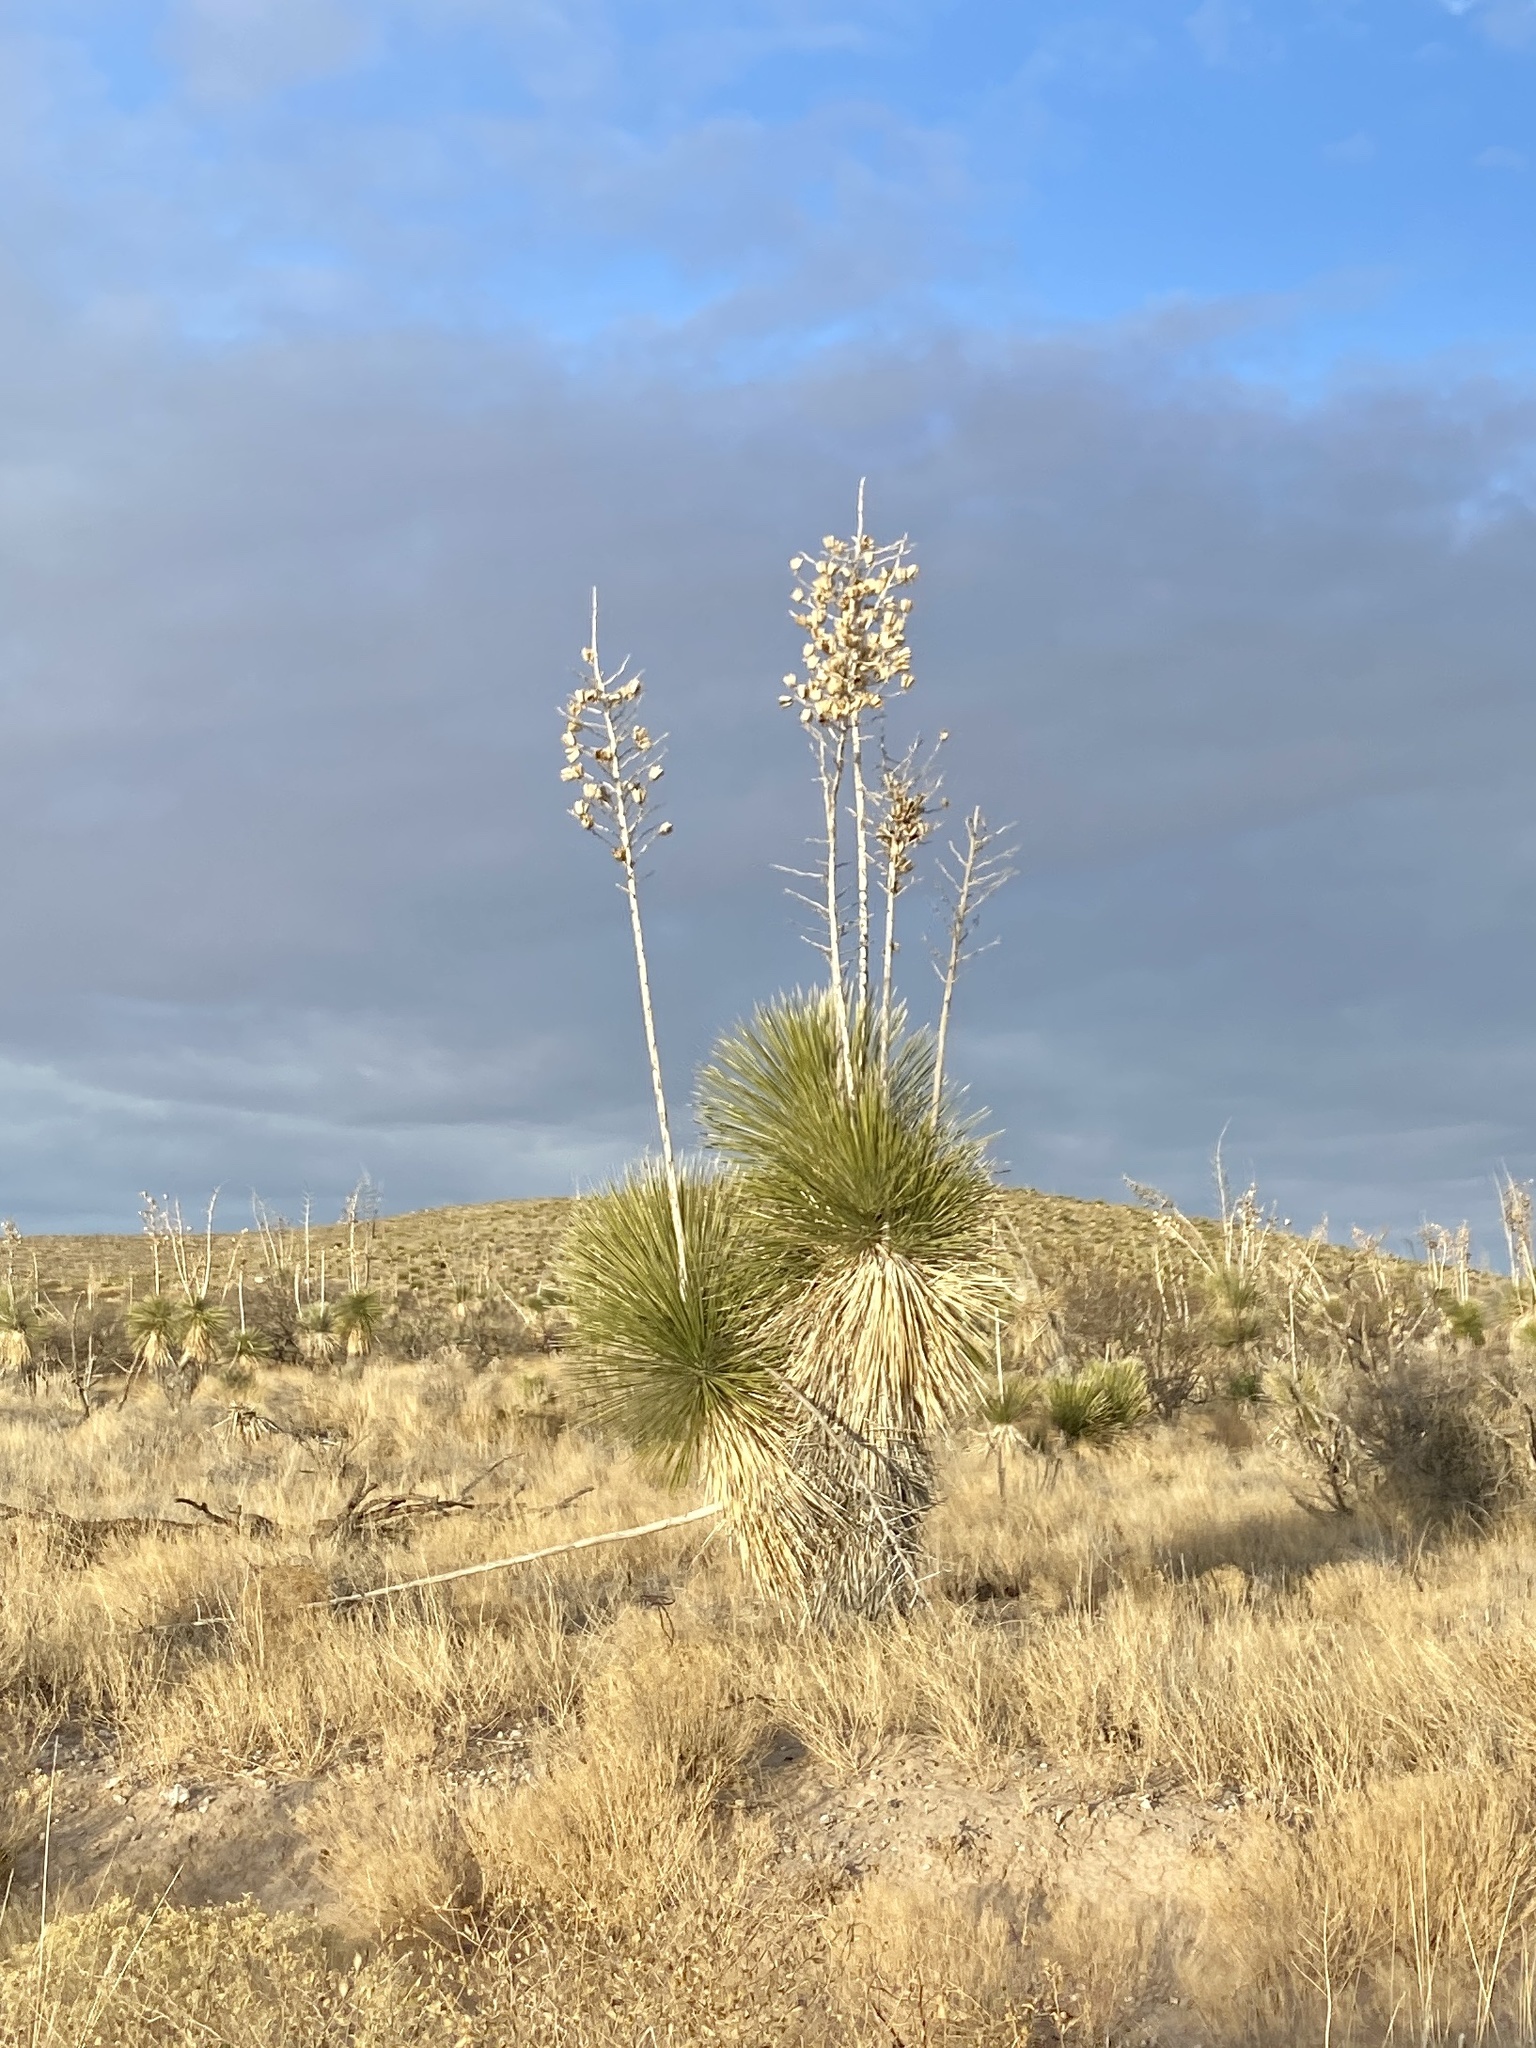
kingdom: Plantae
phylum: Tracheophyta
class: Liliopsida
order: Asparagales
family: Asparagaceae
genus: Yucca
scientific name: Yucca elata
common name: Palmella
